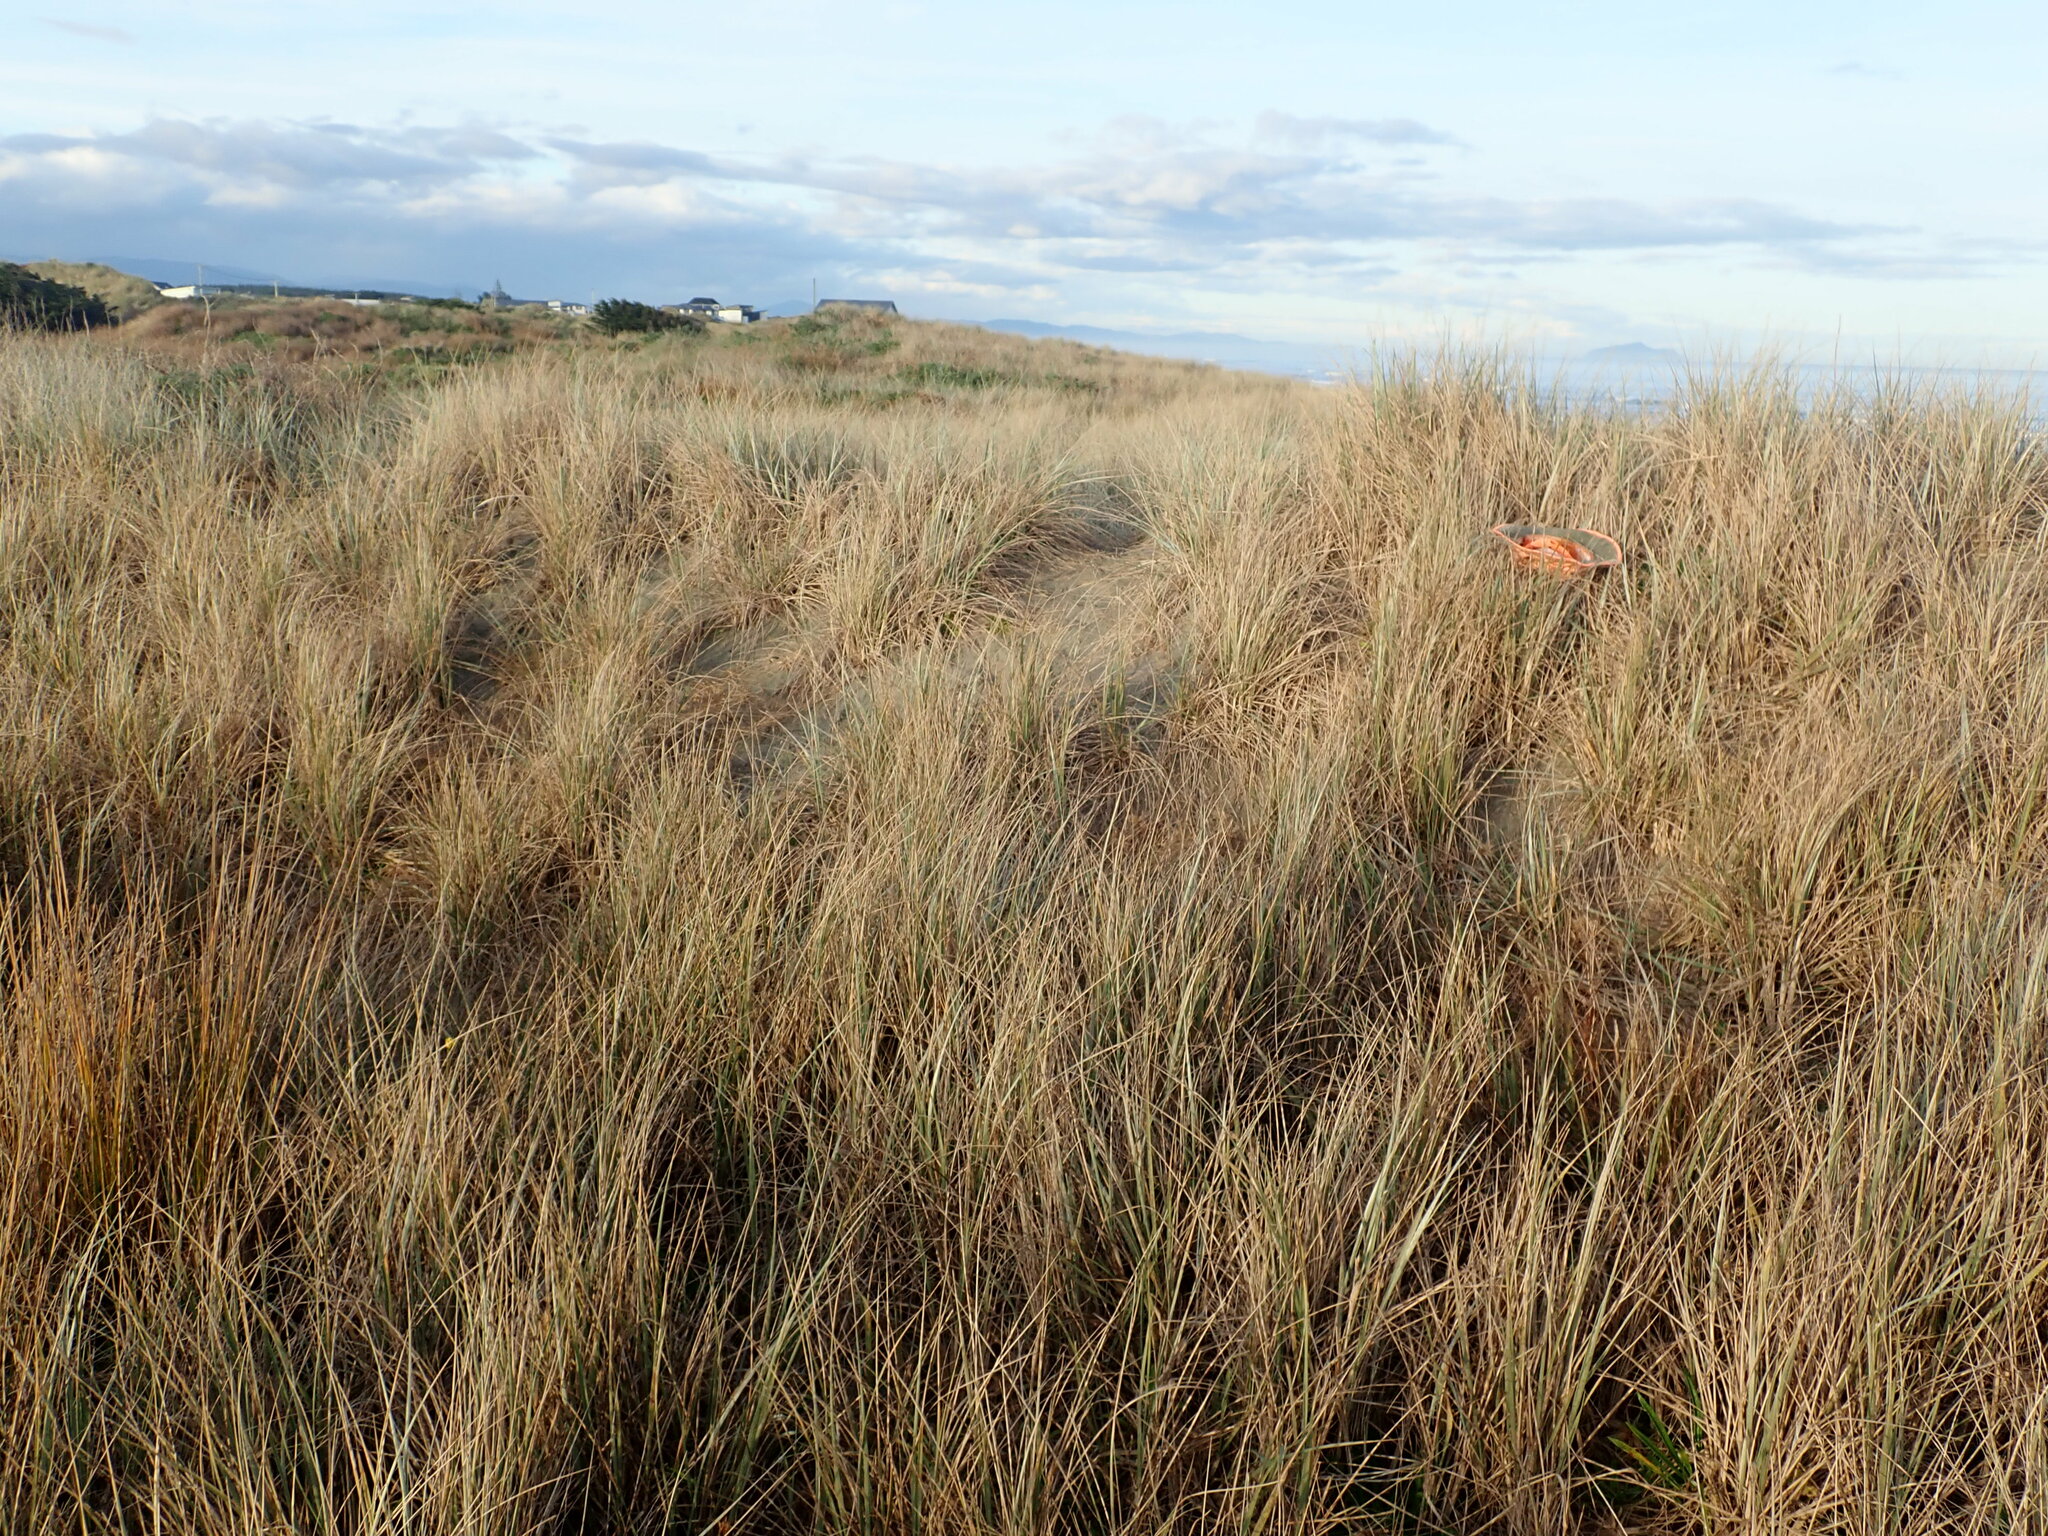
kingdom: Animalia
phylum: Arthropoda
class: Arachnida
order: Araneae
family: Theridiidae
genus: Latrodectus
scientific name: Latrodectus katipo
